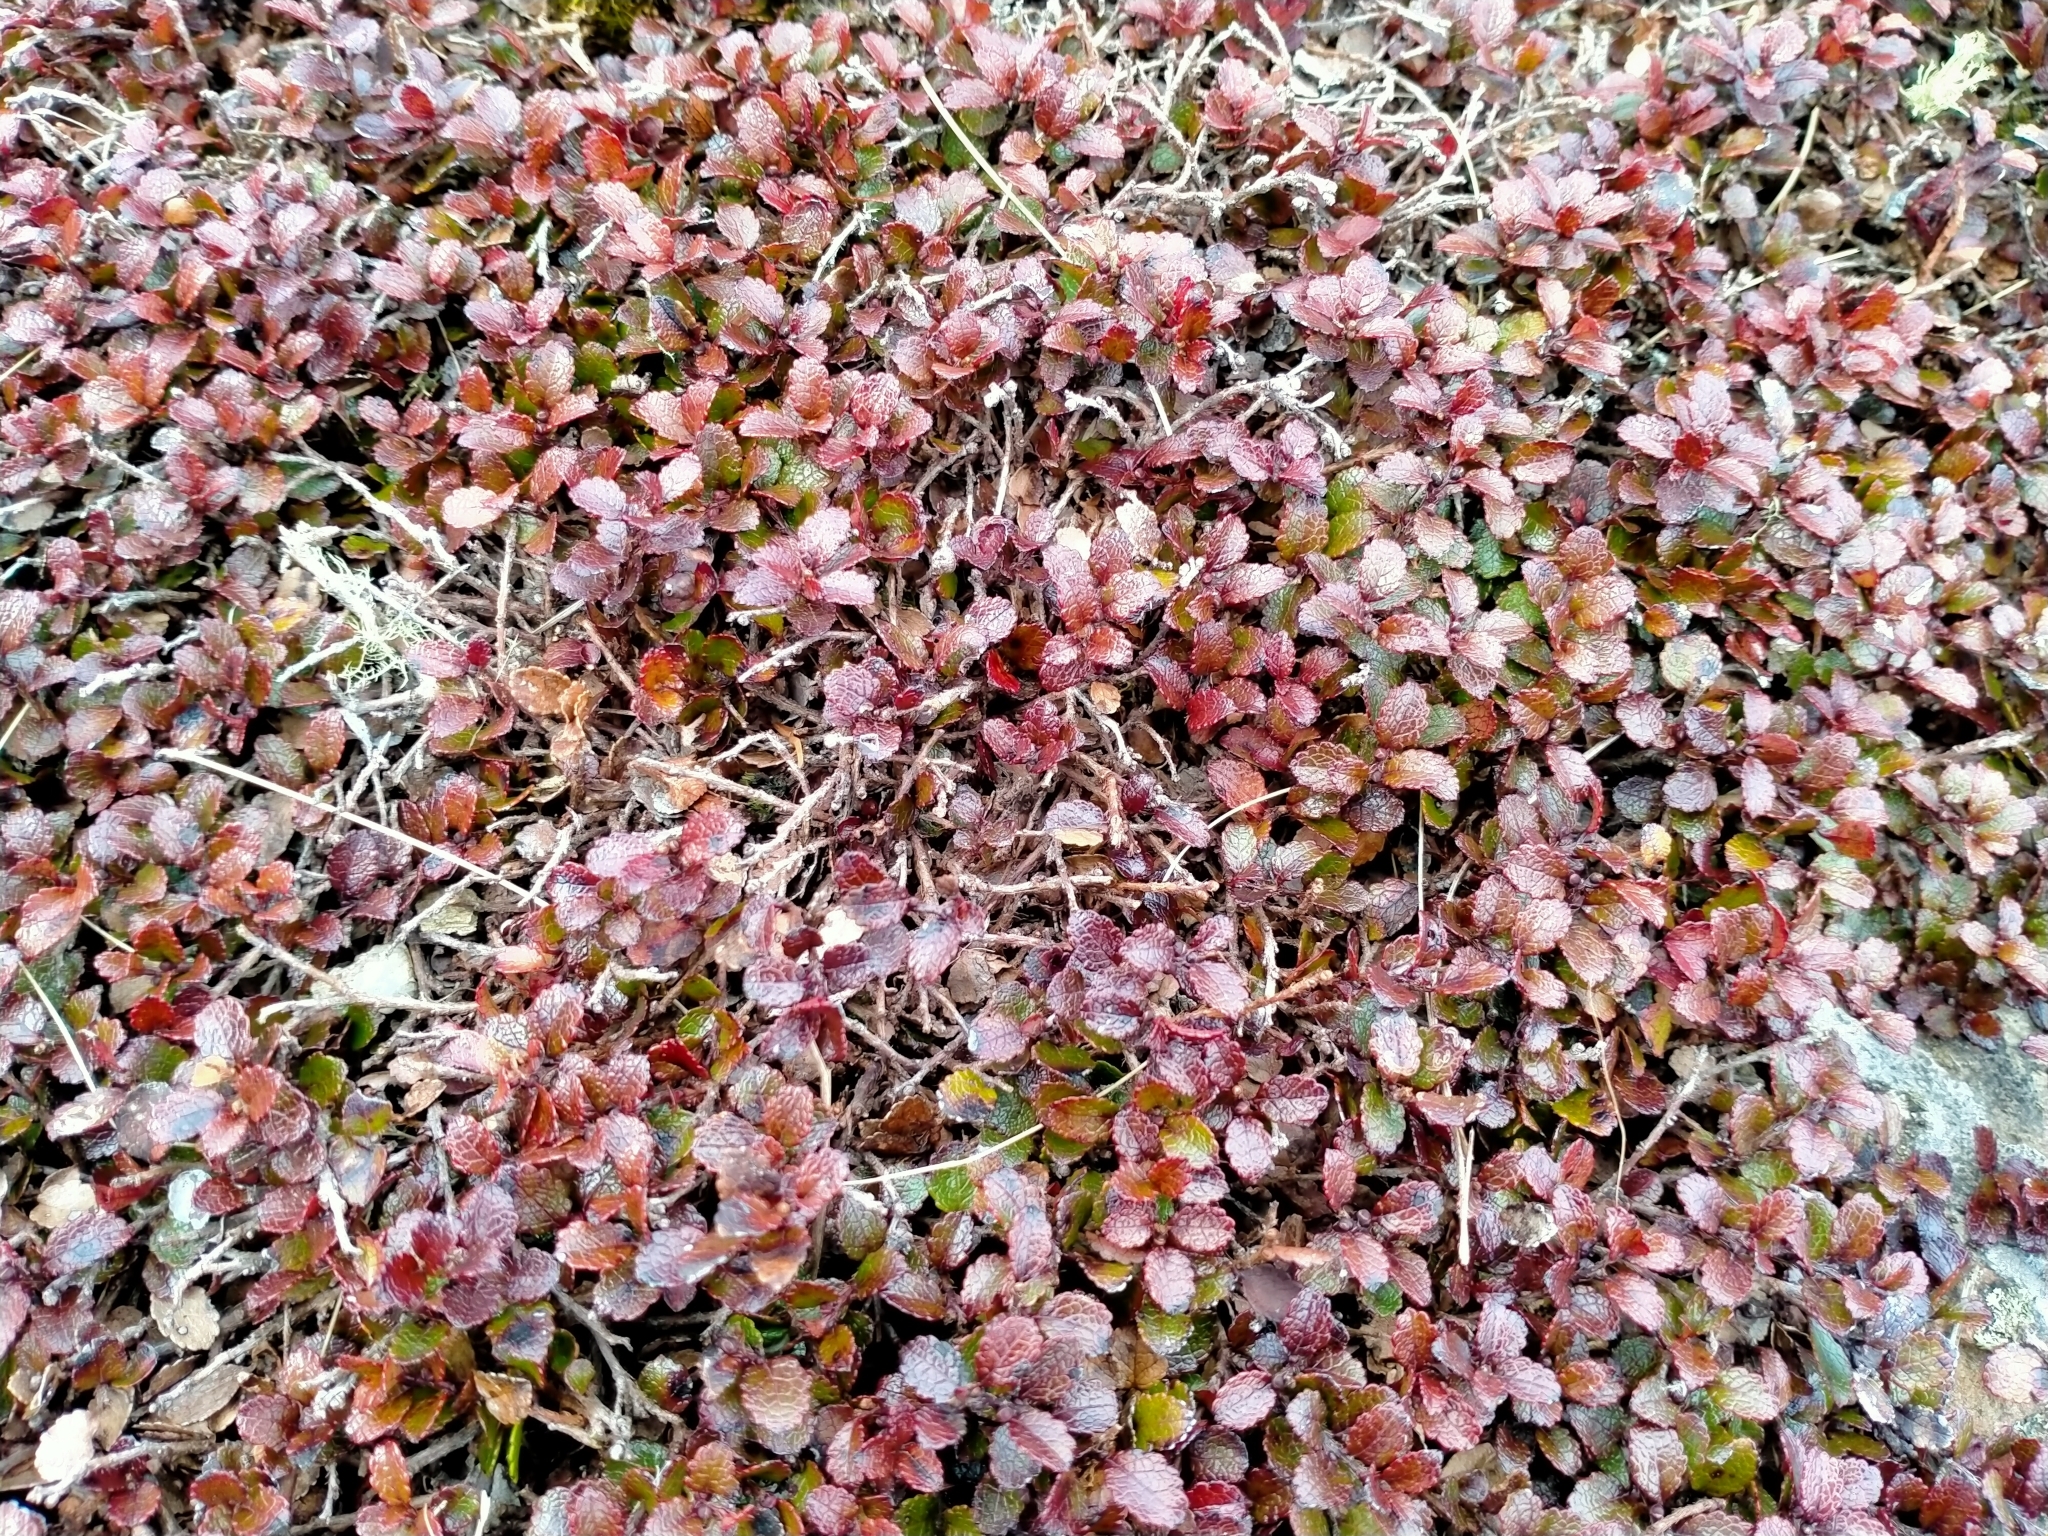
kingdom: Plantae
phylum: Tracheophyta
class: Magnoliopsida
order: Ericales
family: Ericaceae
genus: Gaultheria
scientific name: Gaultheria depressa
